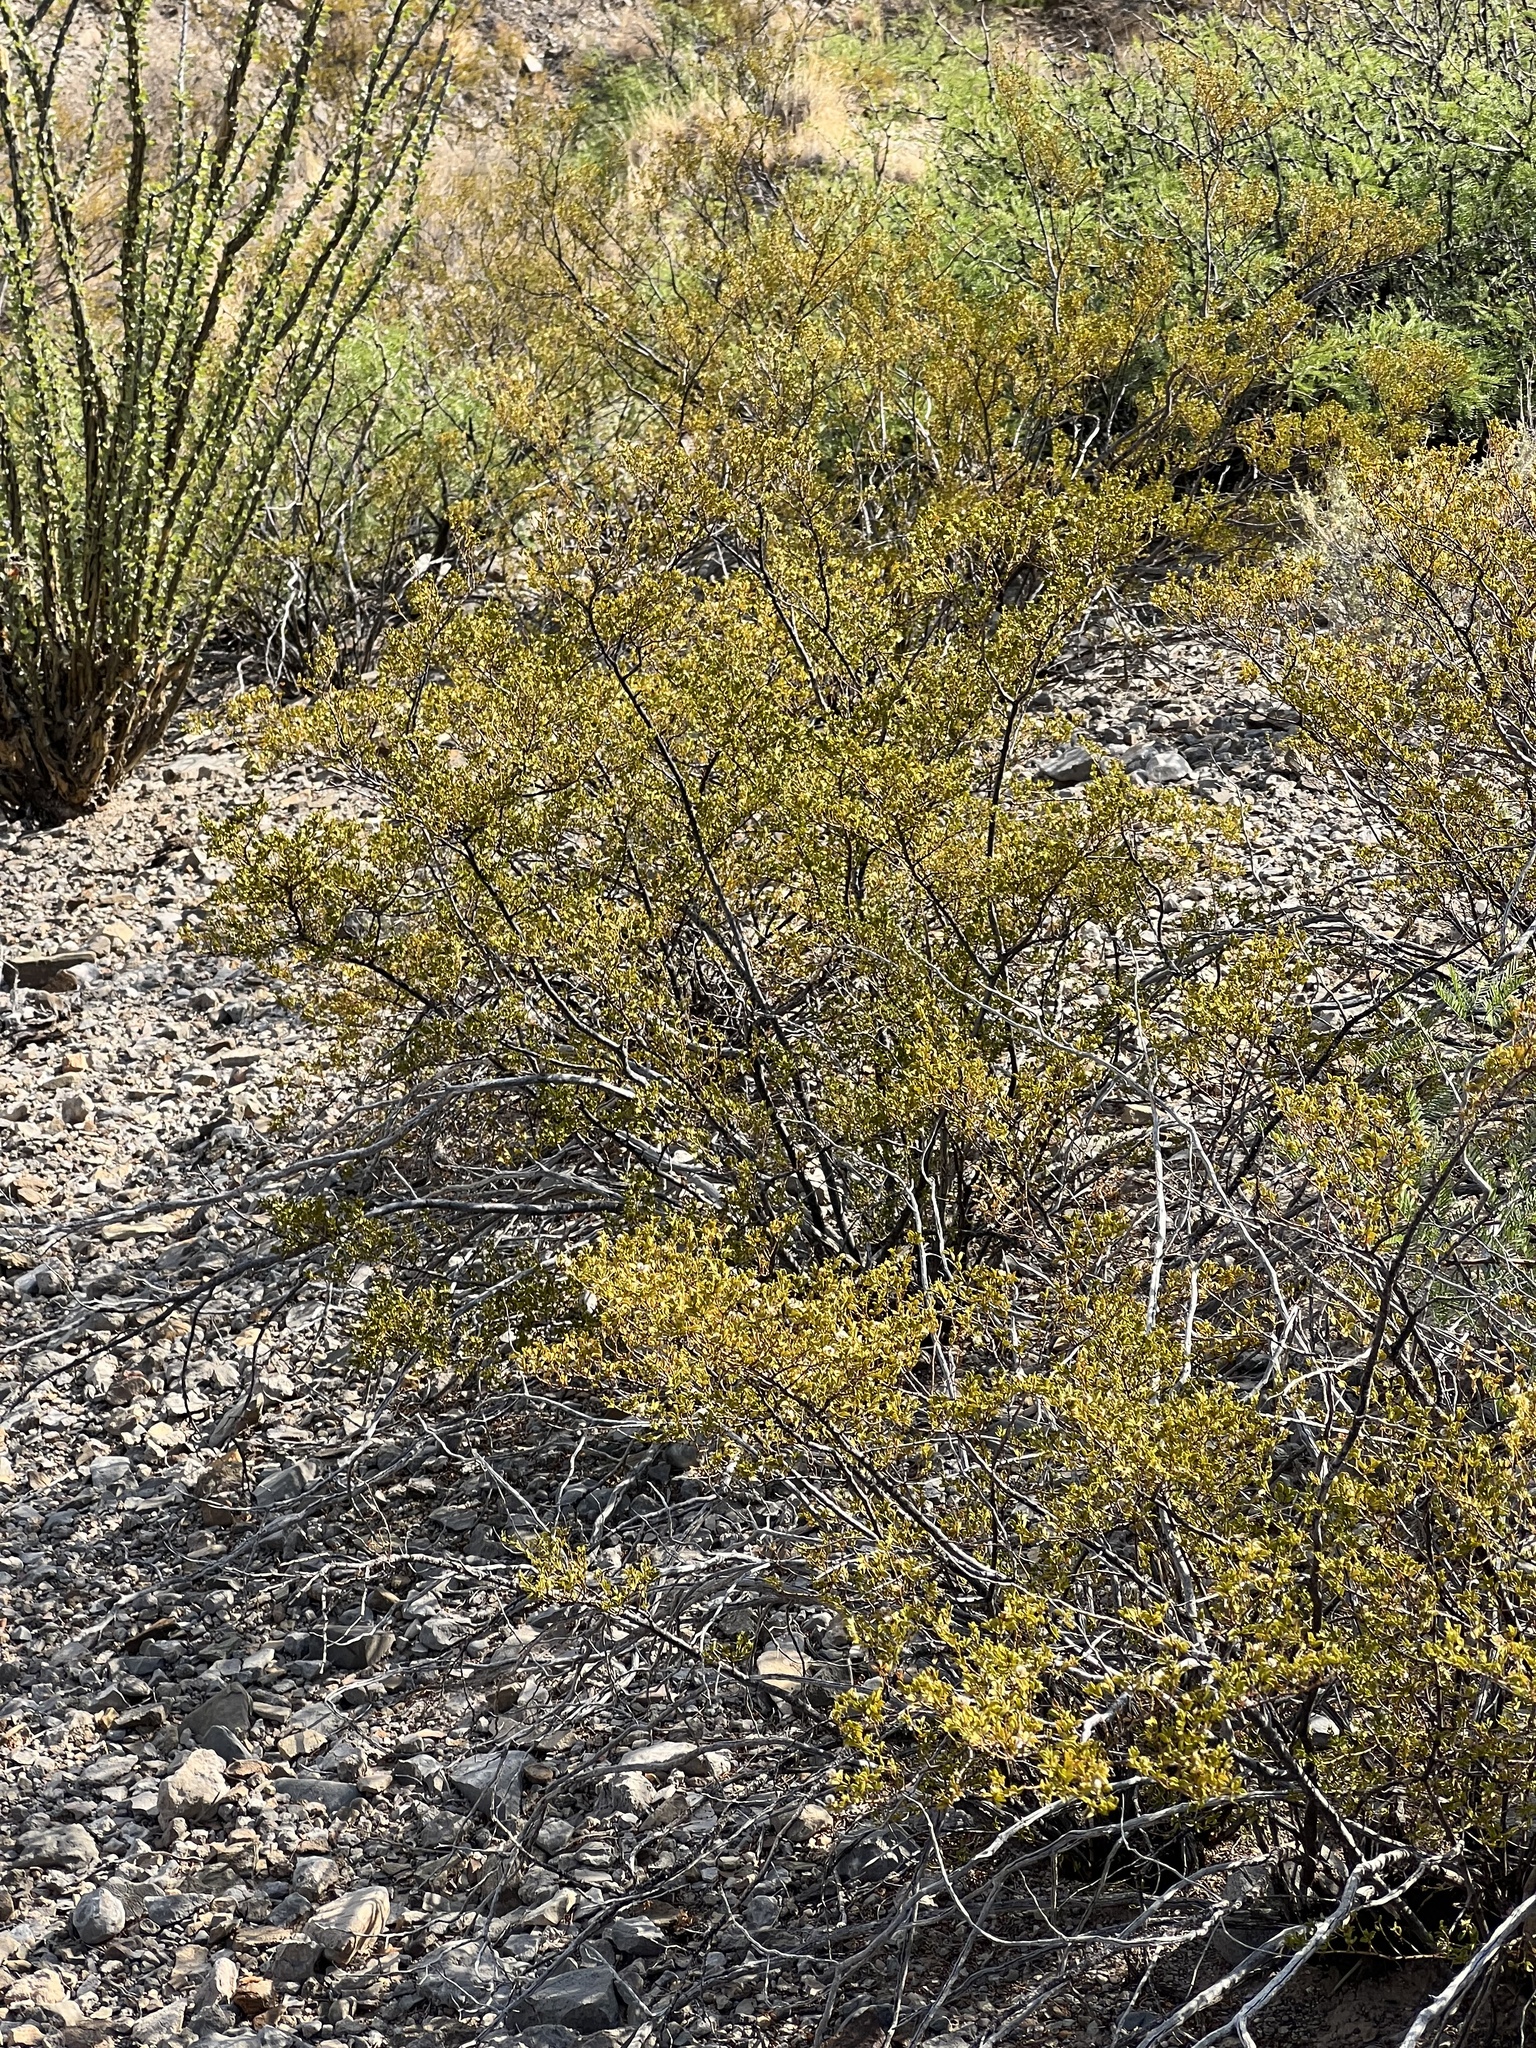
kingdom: Plantae
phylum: Tracheophyta
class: Magnoliopsida
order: Zygophyllales
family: Zygophyllaceae
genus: Larrea
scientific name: Larrea tridentata
